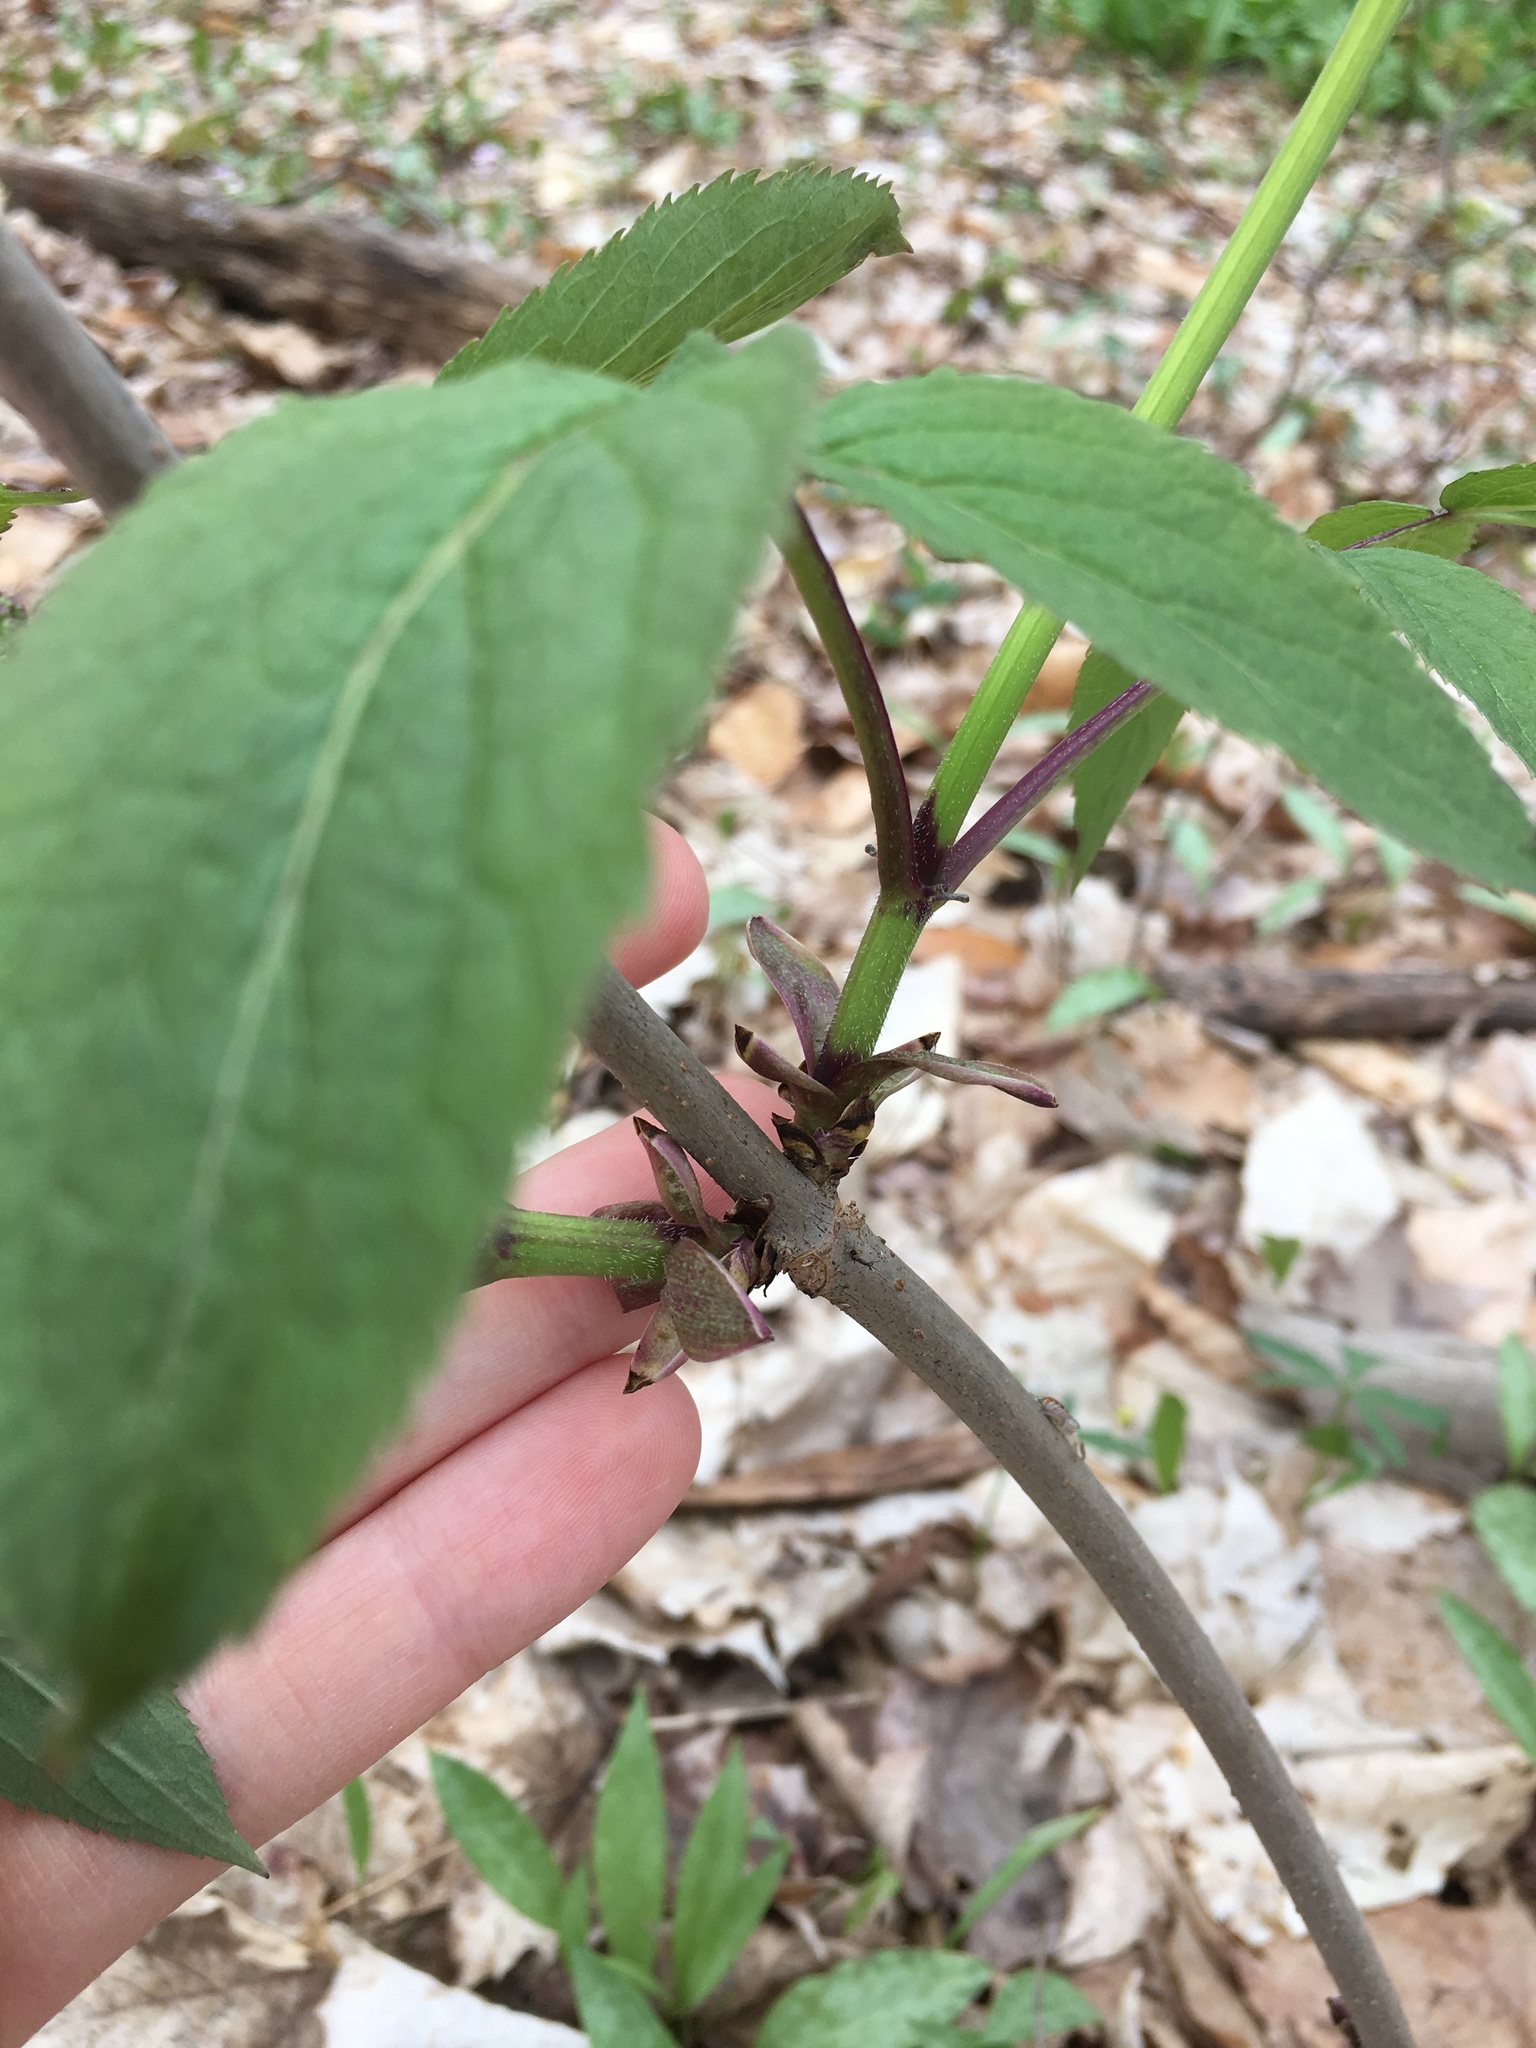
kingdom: Plantae
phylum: Tracheophyta
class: Magnoliopsida
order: Dipsacales
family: Viburnaceae
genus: Sambucus
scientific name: Sambucus racemosa
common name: Red-berried elder
